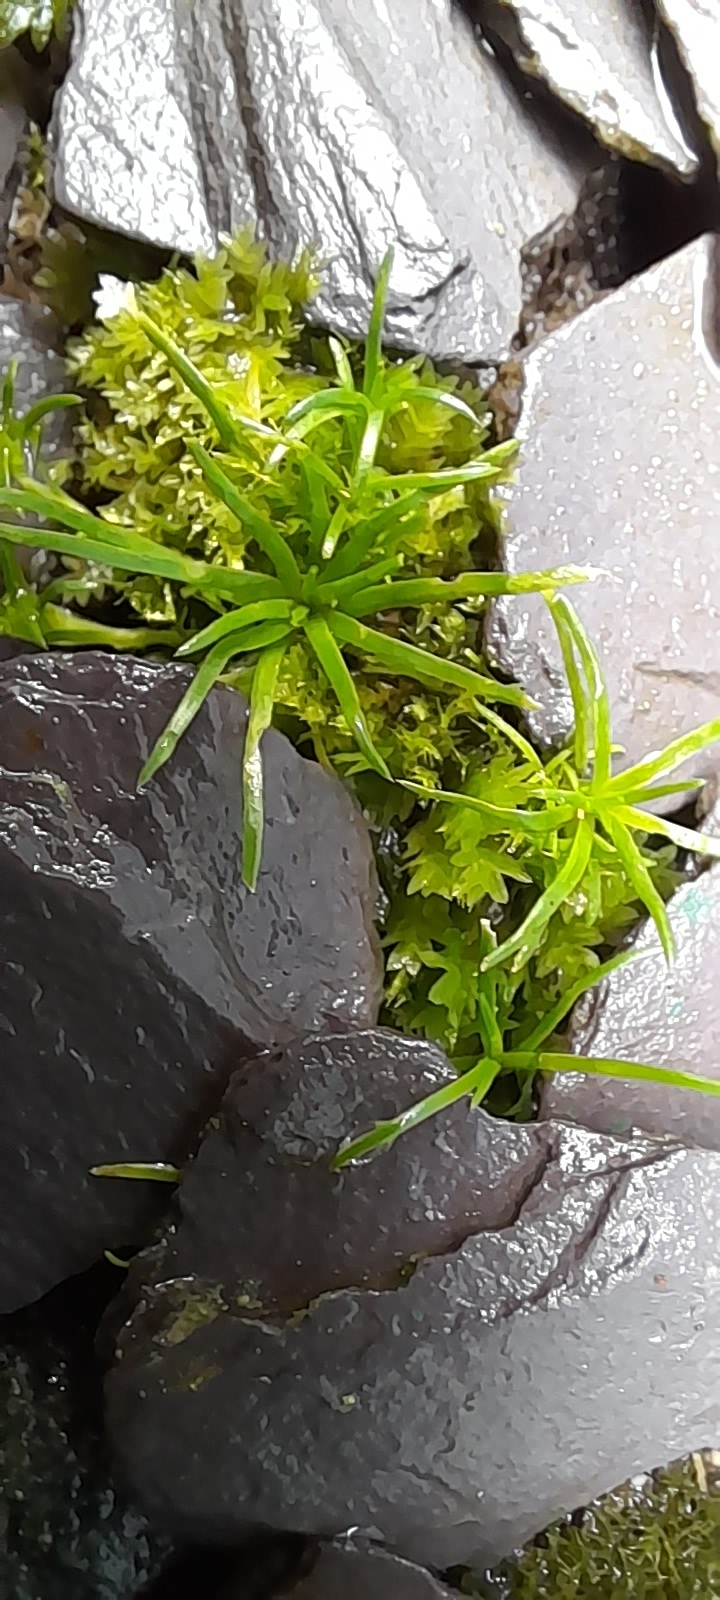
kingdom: Plantae
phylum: Tracheophyta
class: Magnoliopsida
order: Caryophyllales
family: Caryophyllaceae
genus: Sagina
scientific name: Sagina procumbens
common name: Procumbent pearlwort
